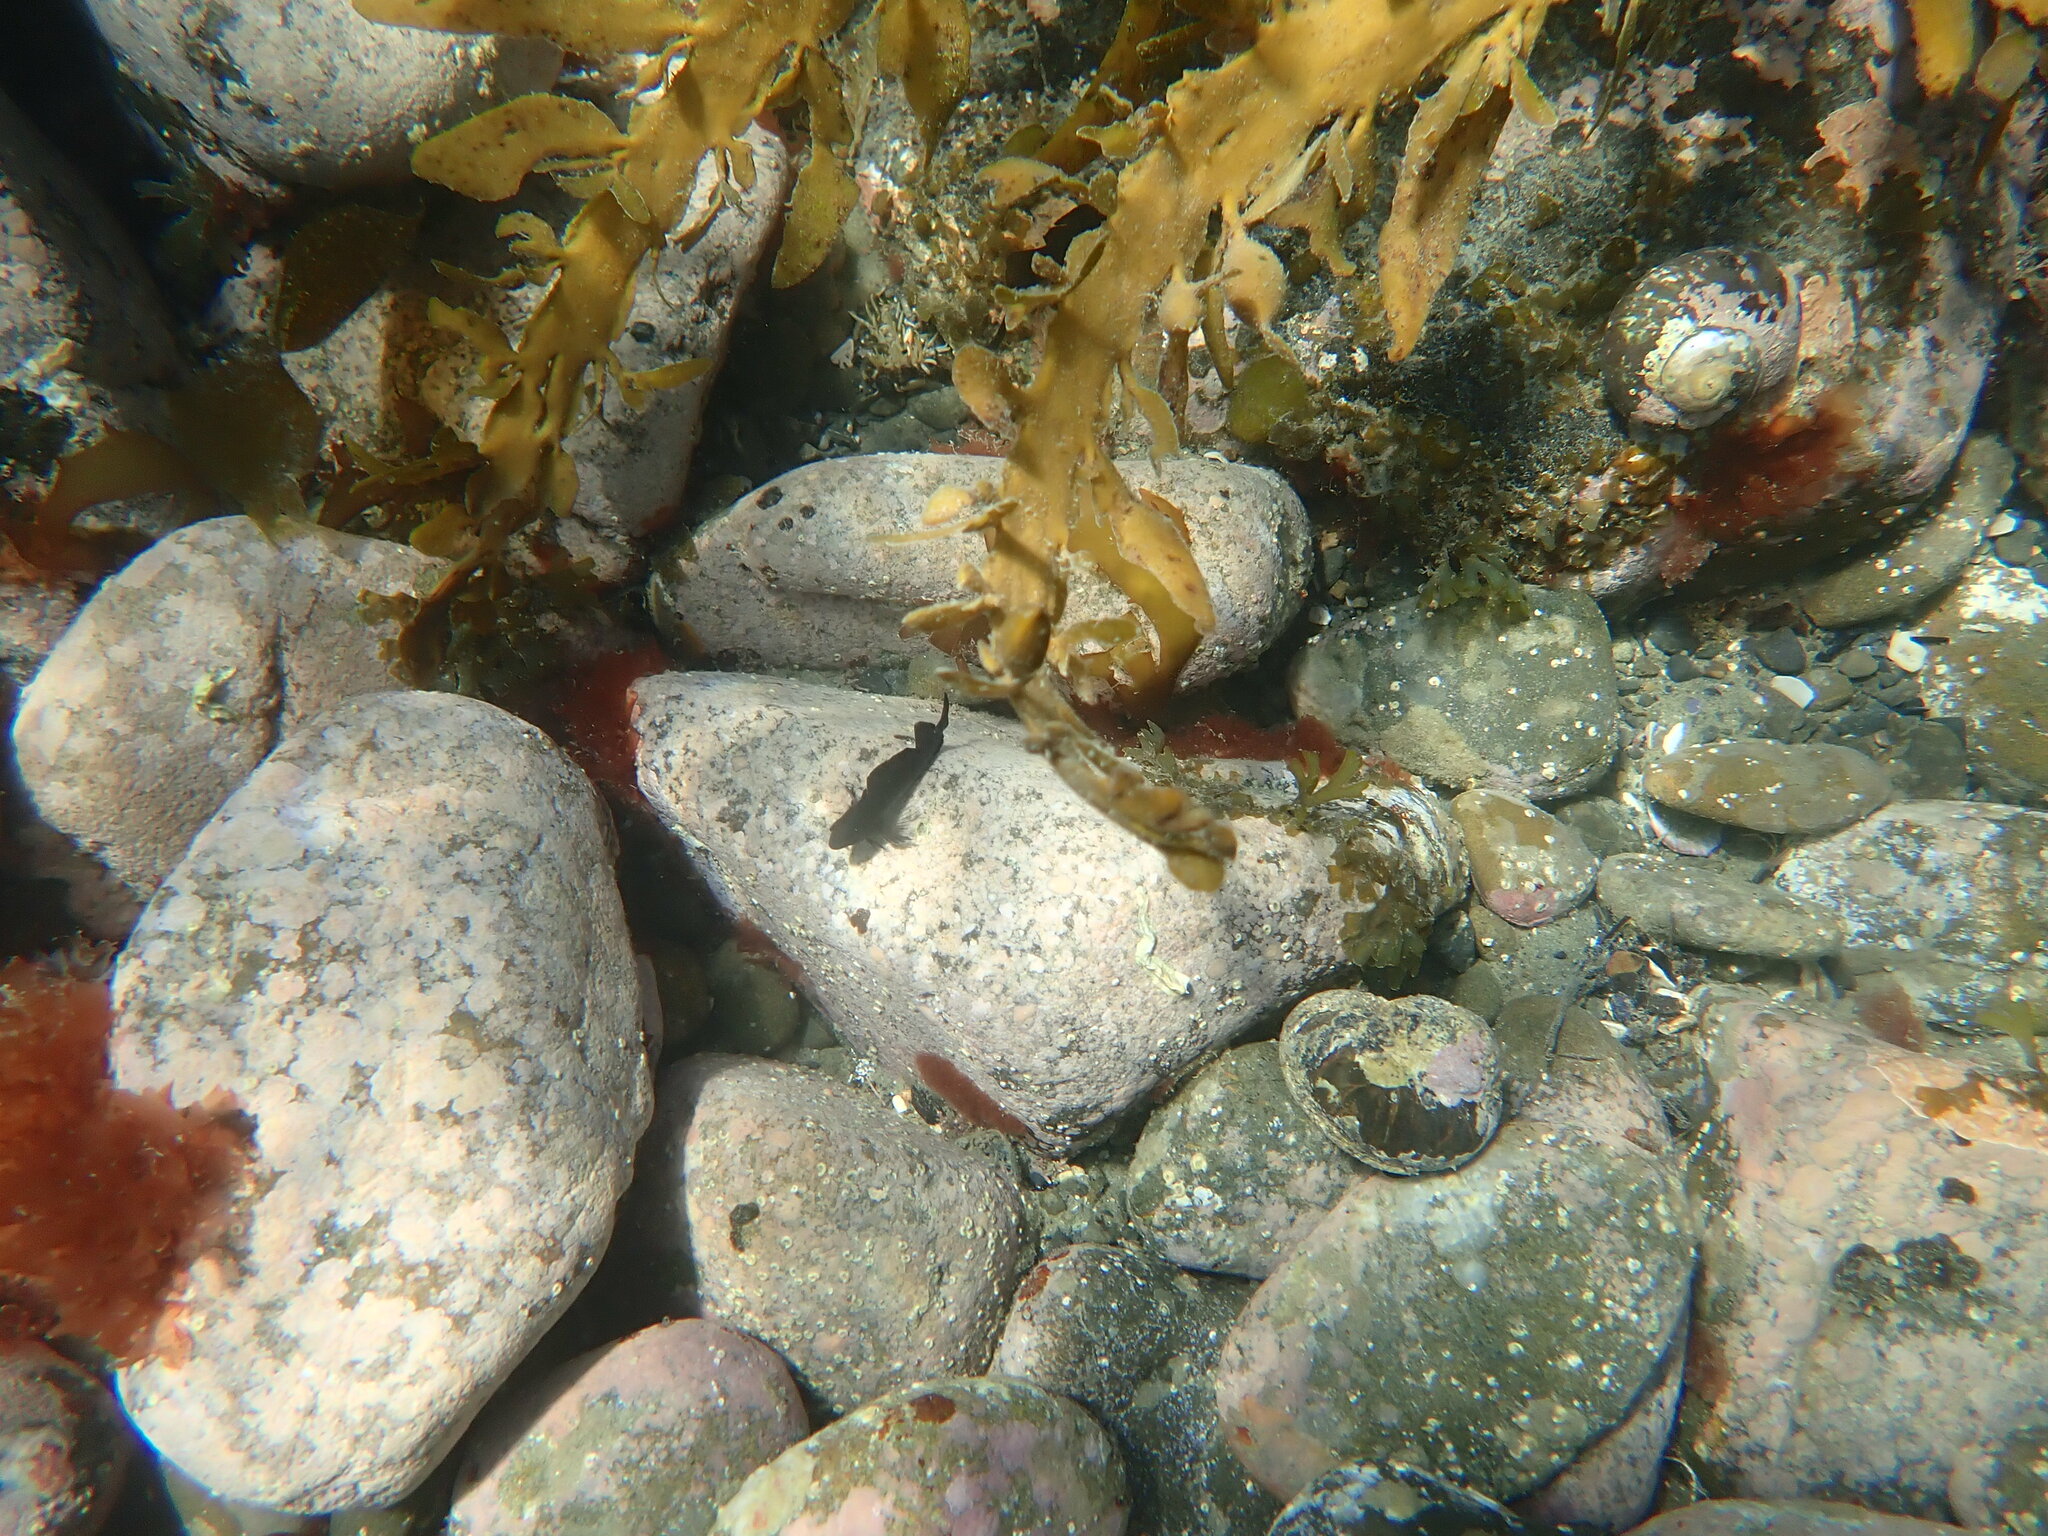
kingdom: Animalia
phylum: Chordata
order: Perciformes
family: Tripterygiidae
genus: Forsterygion
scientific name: Forsterygion lapillum
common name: Common triplefin
